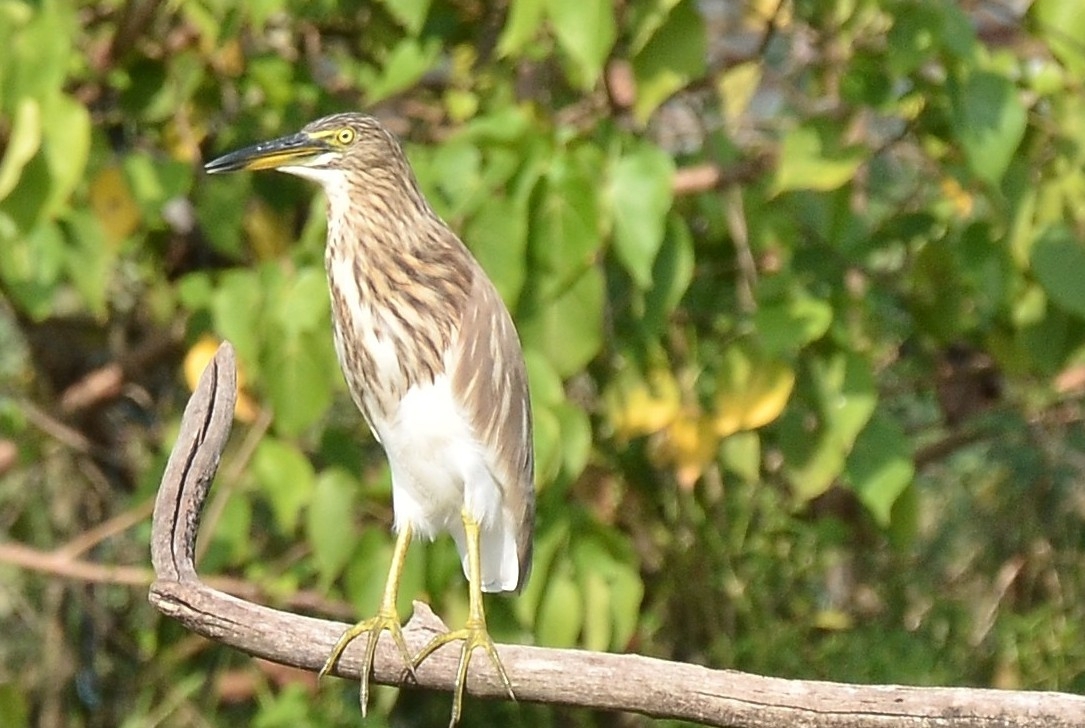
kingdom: Animalia
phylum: Chordata
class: Aves
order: Pelecaniformes
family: Ardeidae
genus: Ardeola
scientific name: Ardeola grayii
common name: Indian pond heron
